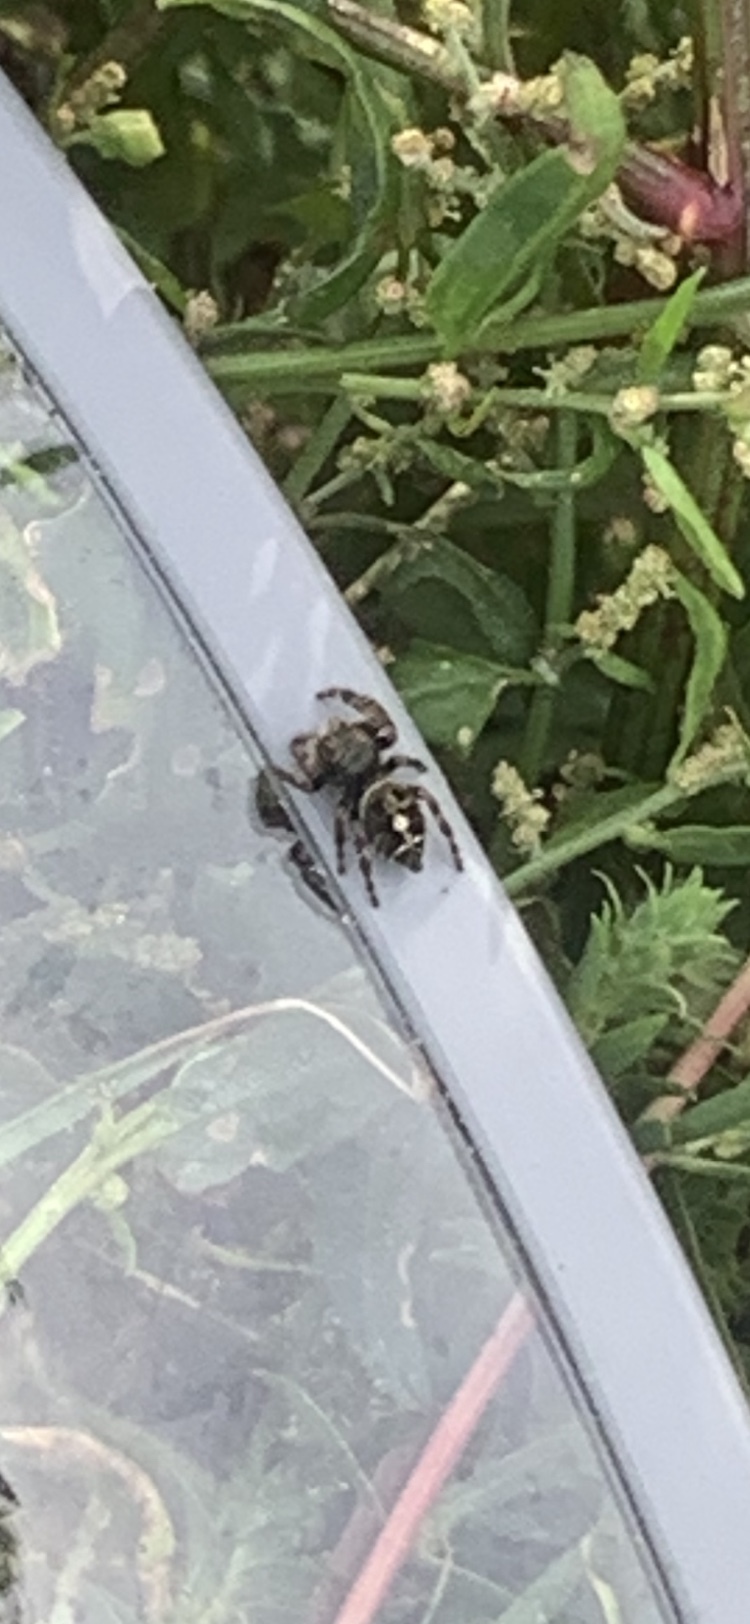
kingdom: Animalia
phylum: Arthropoda
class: Arachnida
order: Araneae
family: Salticidae
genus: Phidippus
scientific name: Phidippus audax
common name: Bold jumper
